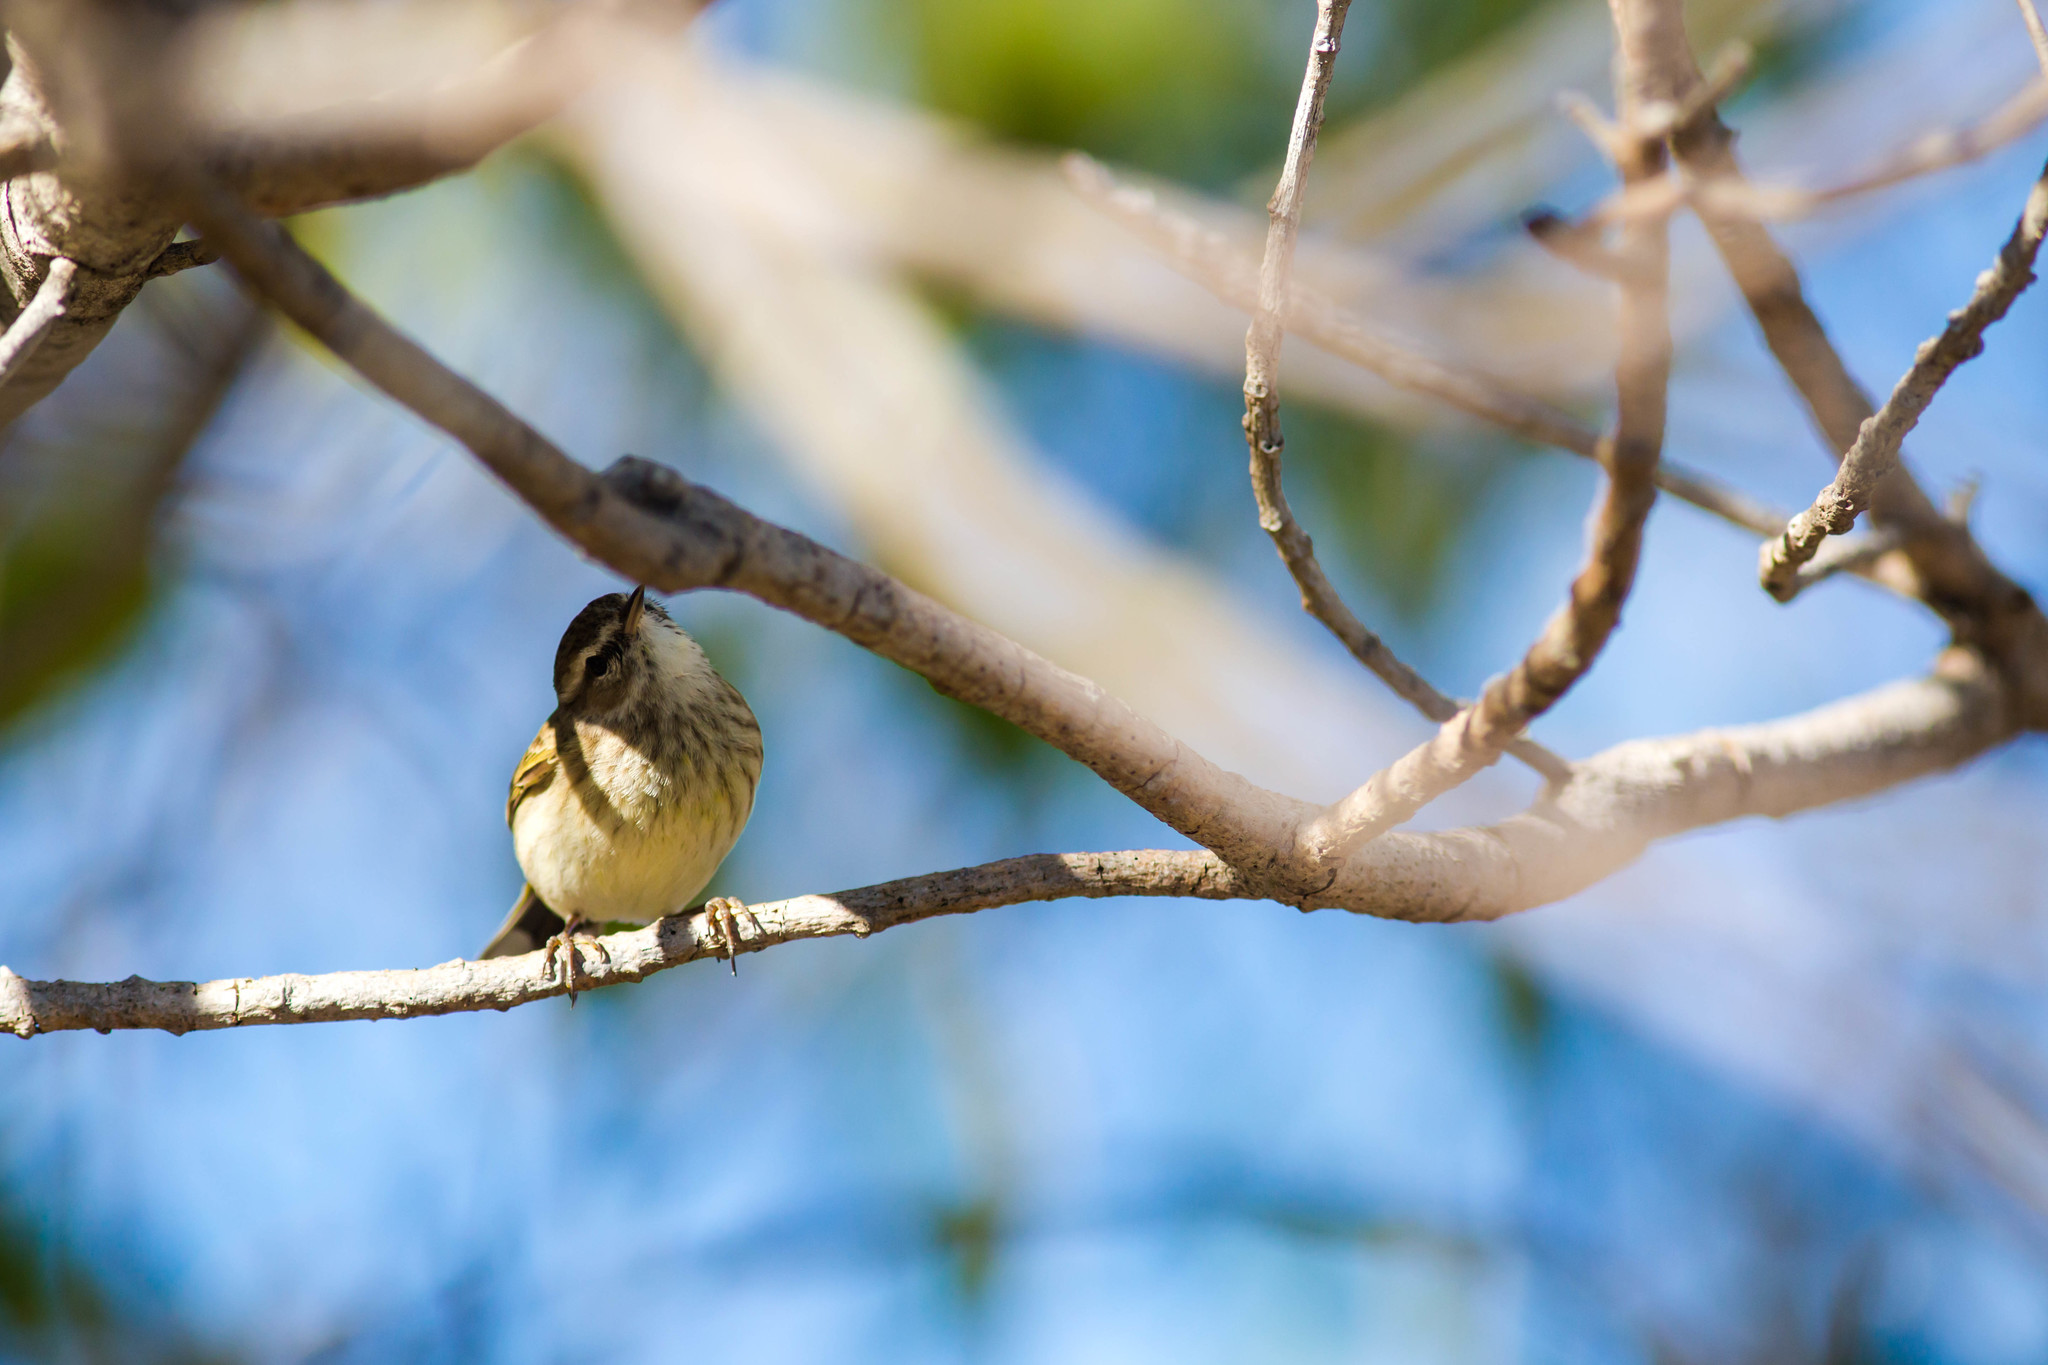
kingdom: Animalia
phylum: Chordata
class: Aves
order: Passeriformes
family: Parulidae
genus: Setophaga
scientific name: Setophaga palmarum
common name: Palm warbler
